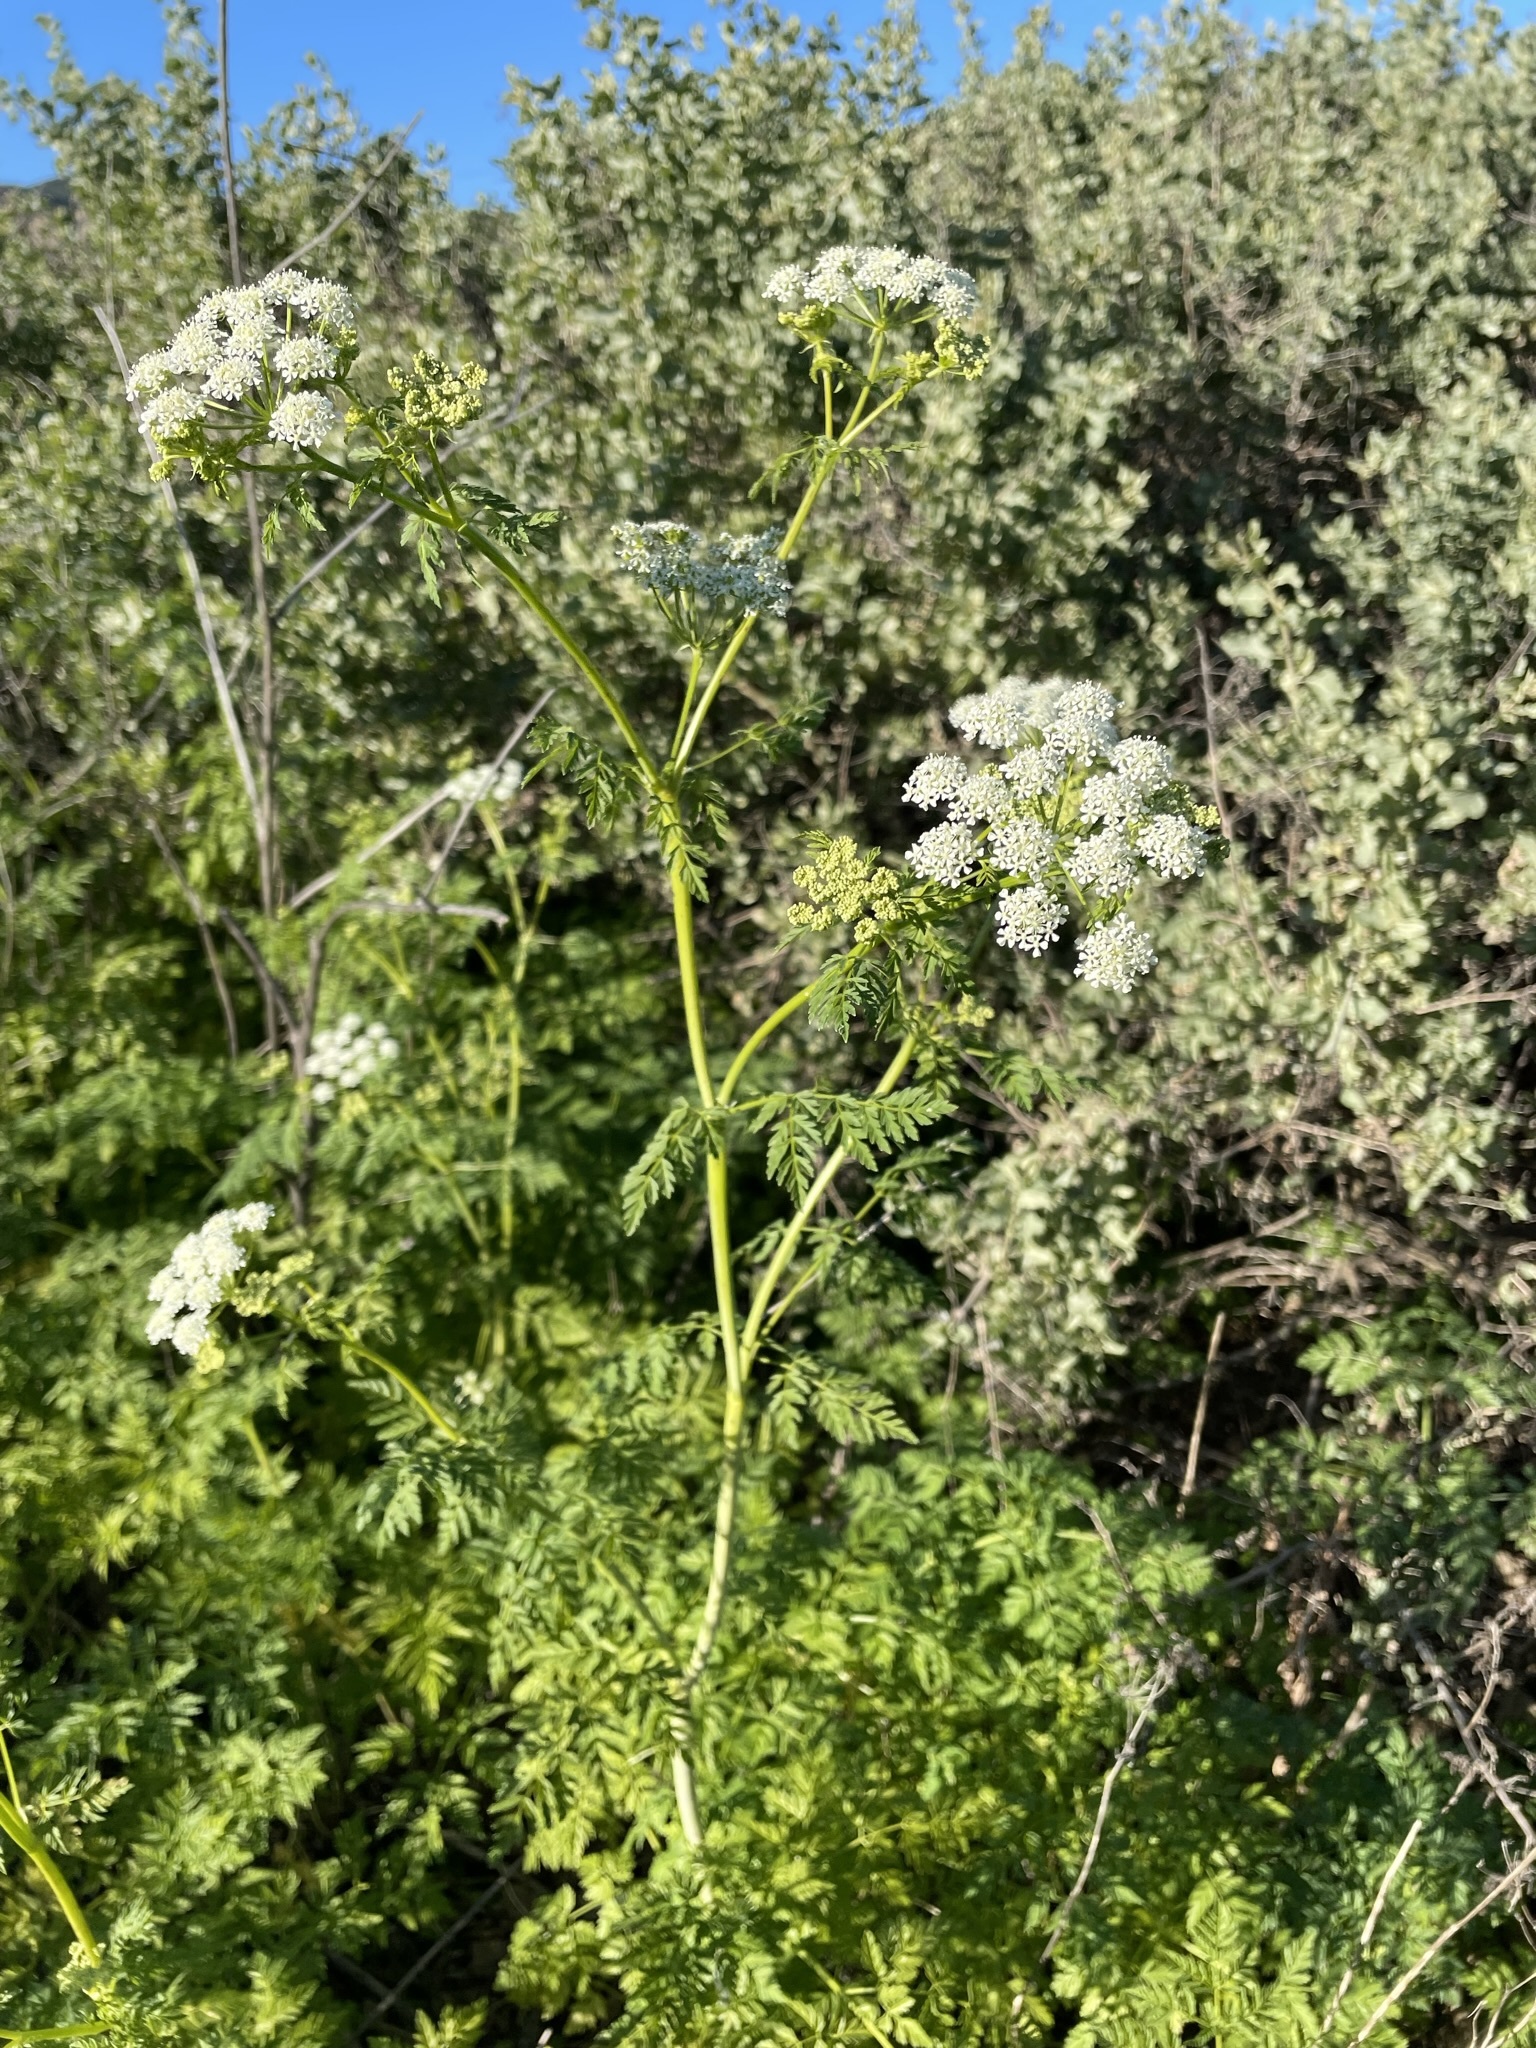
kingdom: Plantae
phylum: Tracheophyta
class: Magnoliopsida
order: Apiales
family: Apiaceae
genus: Conium
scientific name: Conium maculatum
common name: Hemlock
